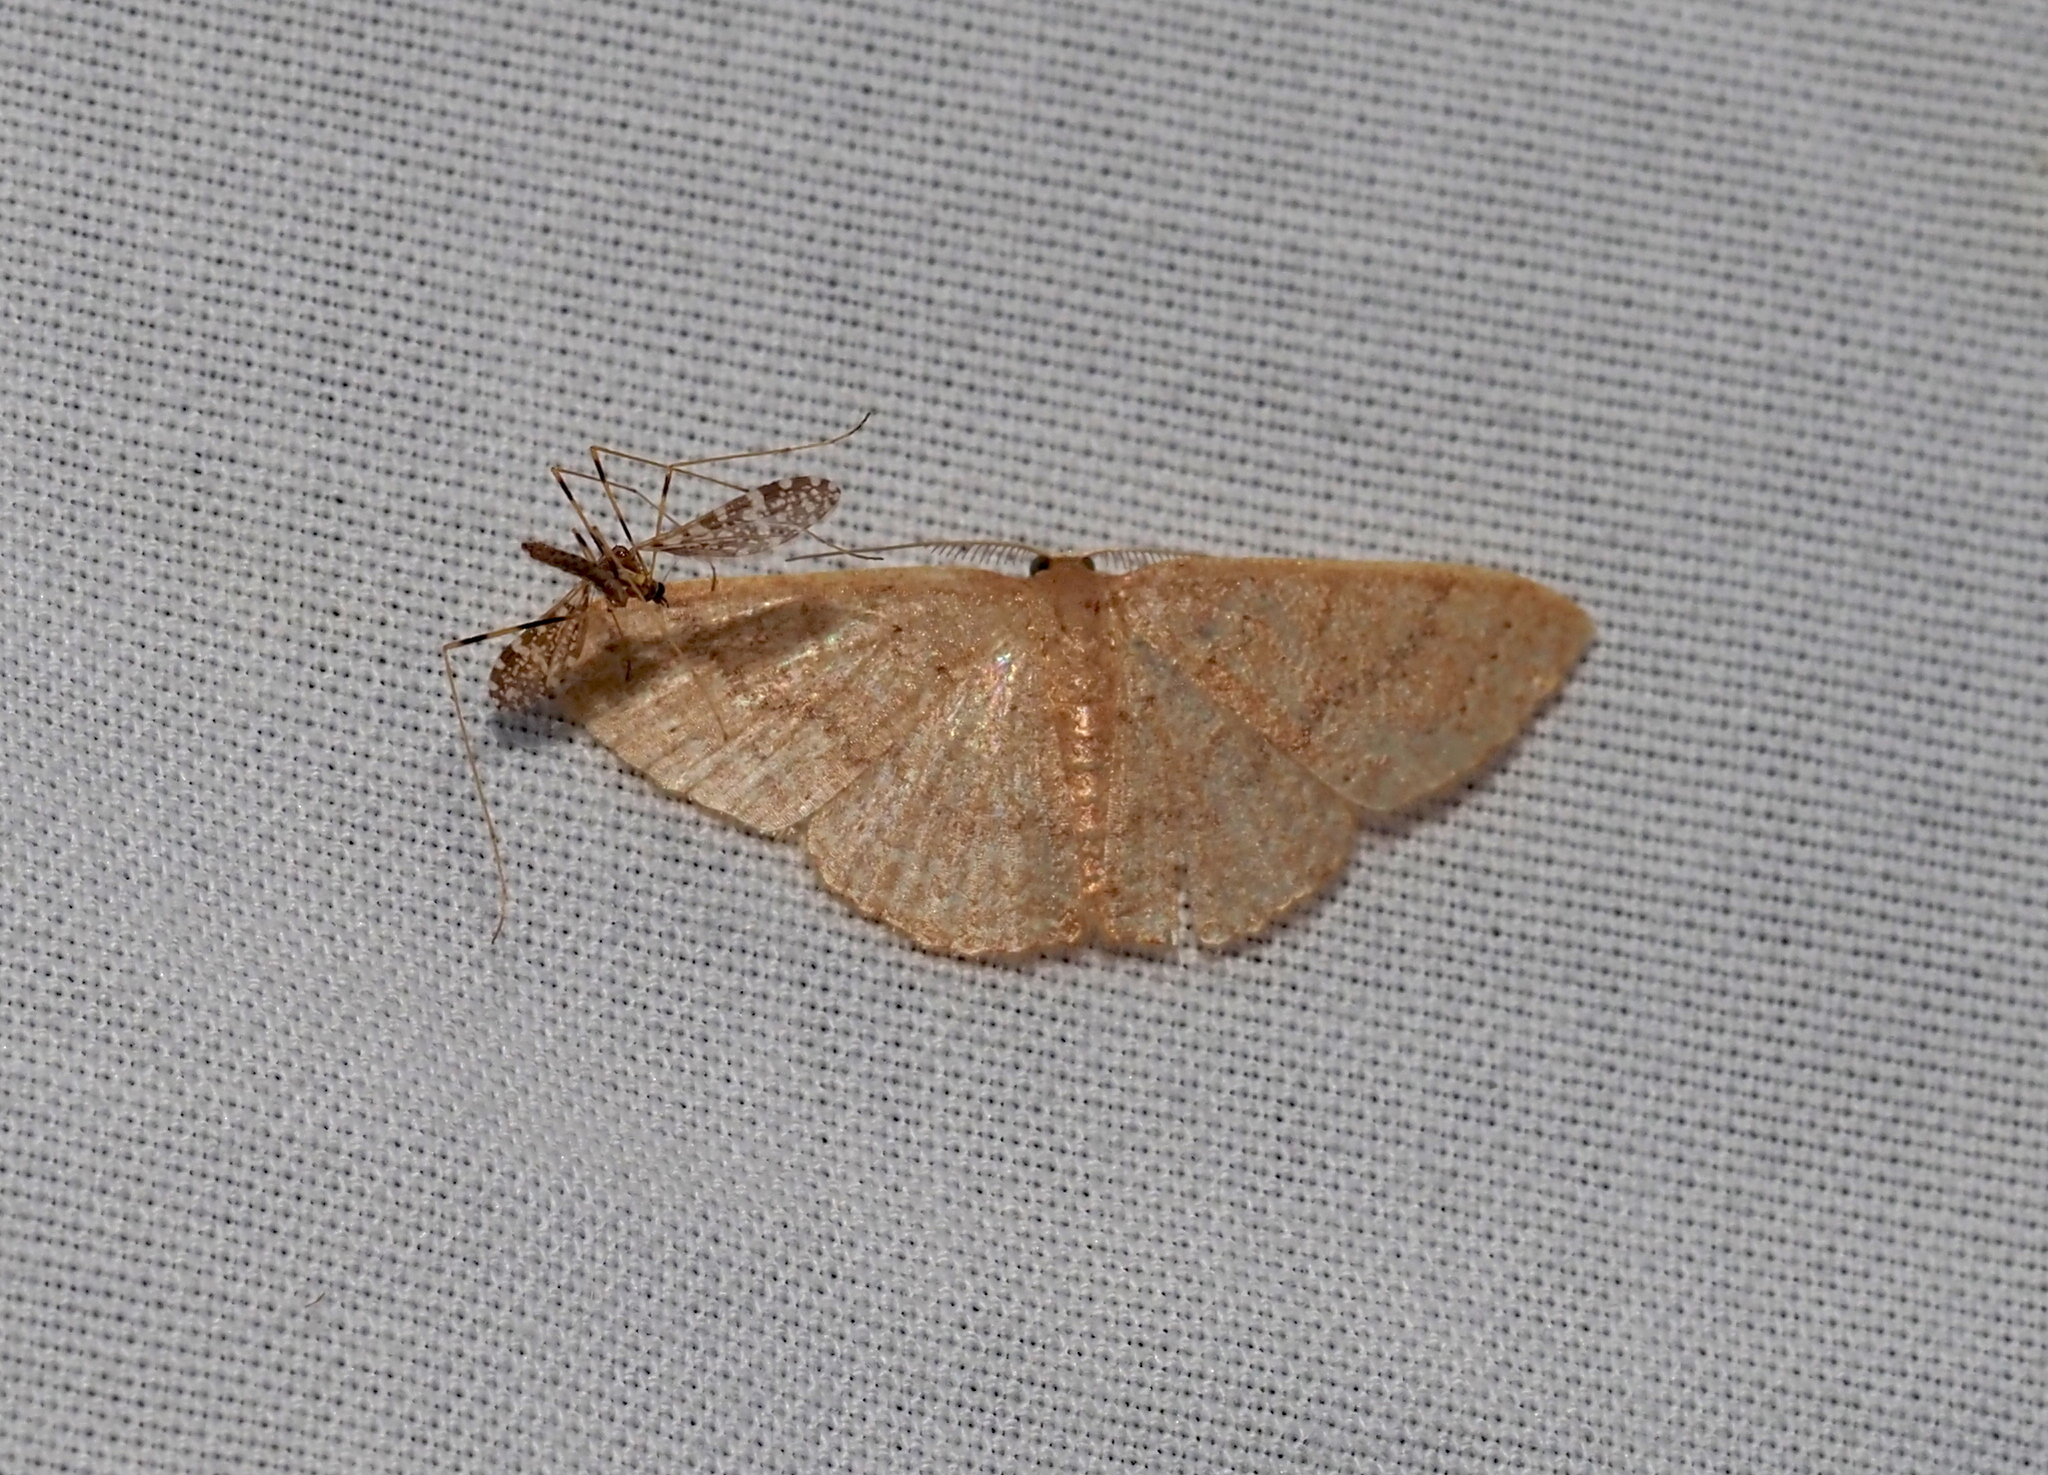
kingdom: Animalia
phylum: Arthropoda
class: Insecta
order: Lepidoptera
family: Geometridae
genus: Pleuroprucha
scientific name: Pleuroprucha insulsaria
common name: Common tan wave
